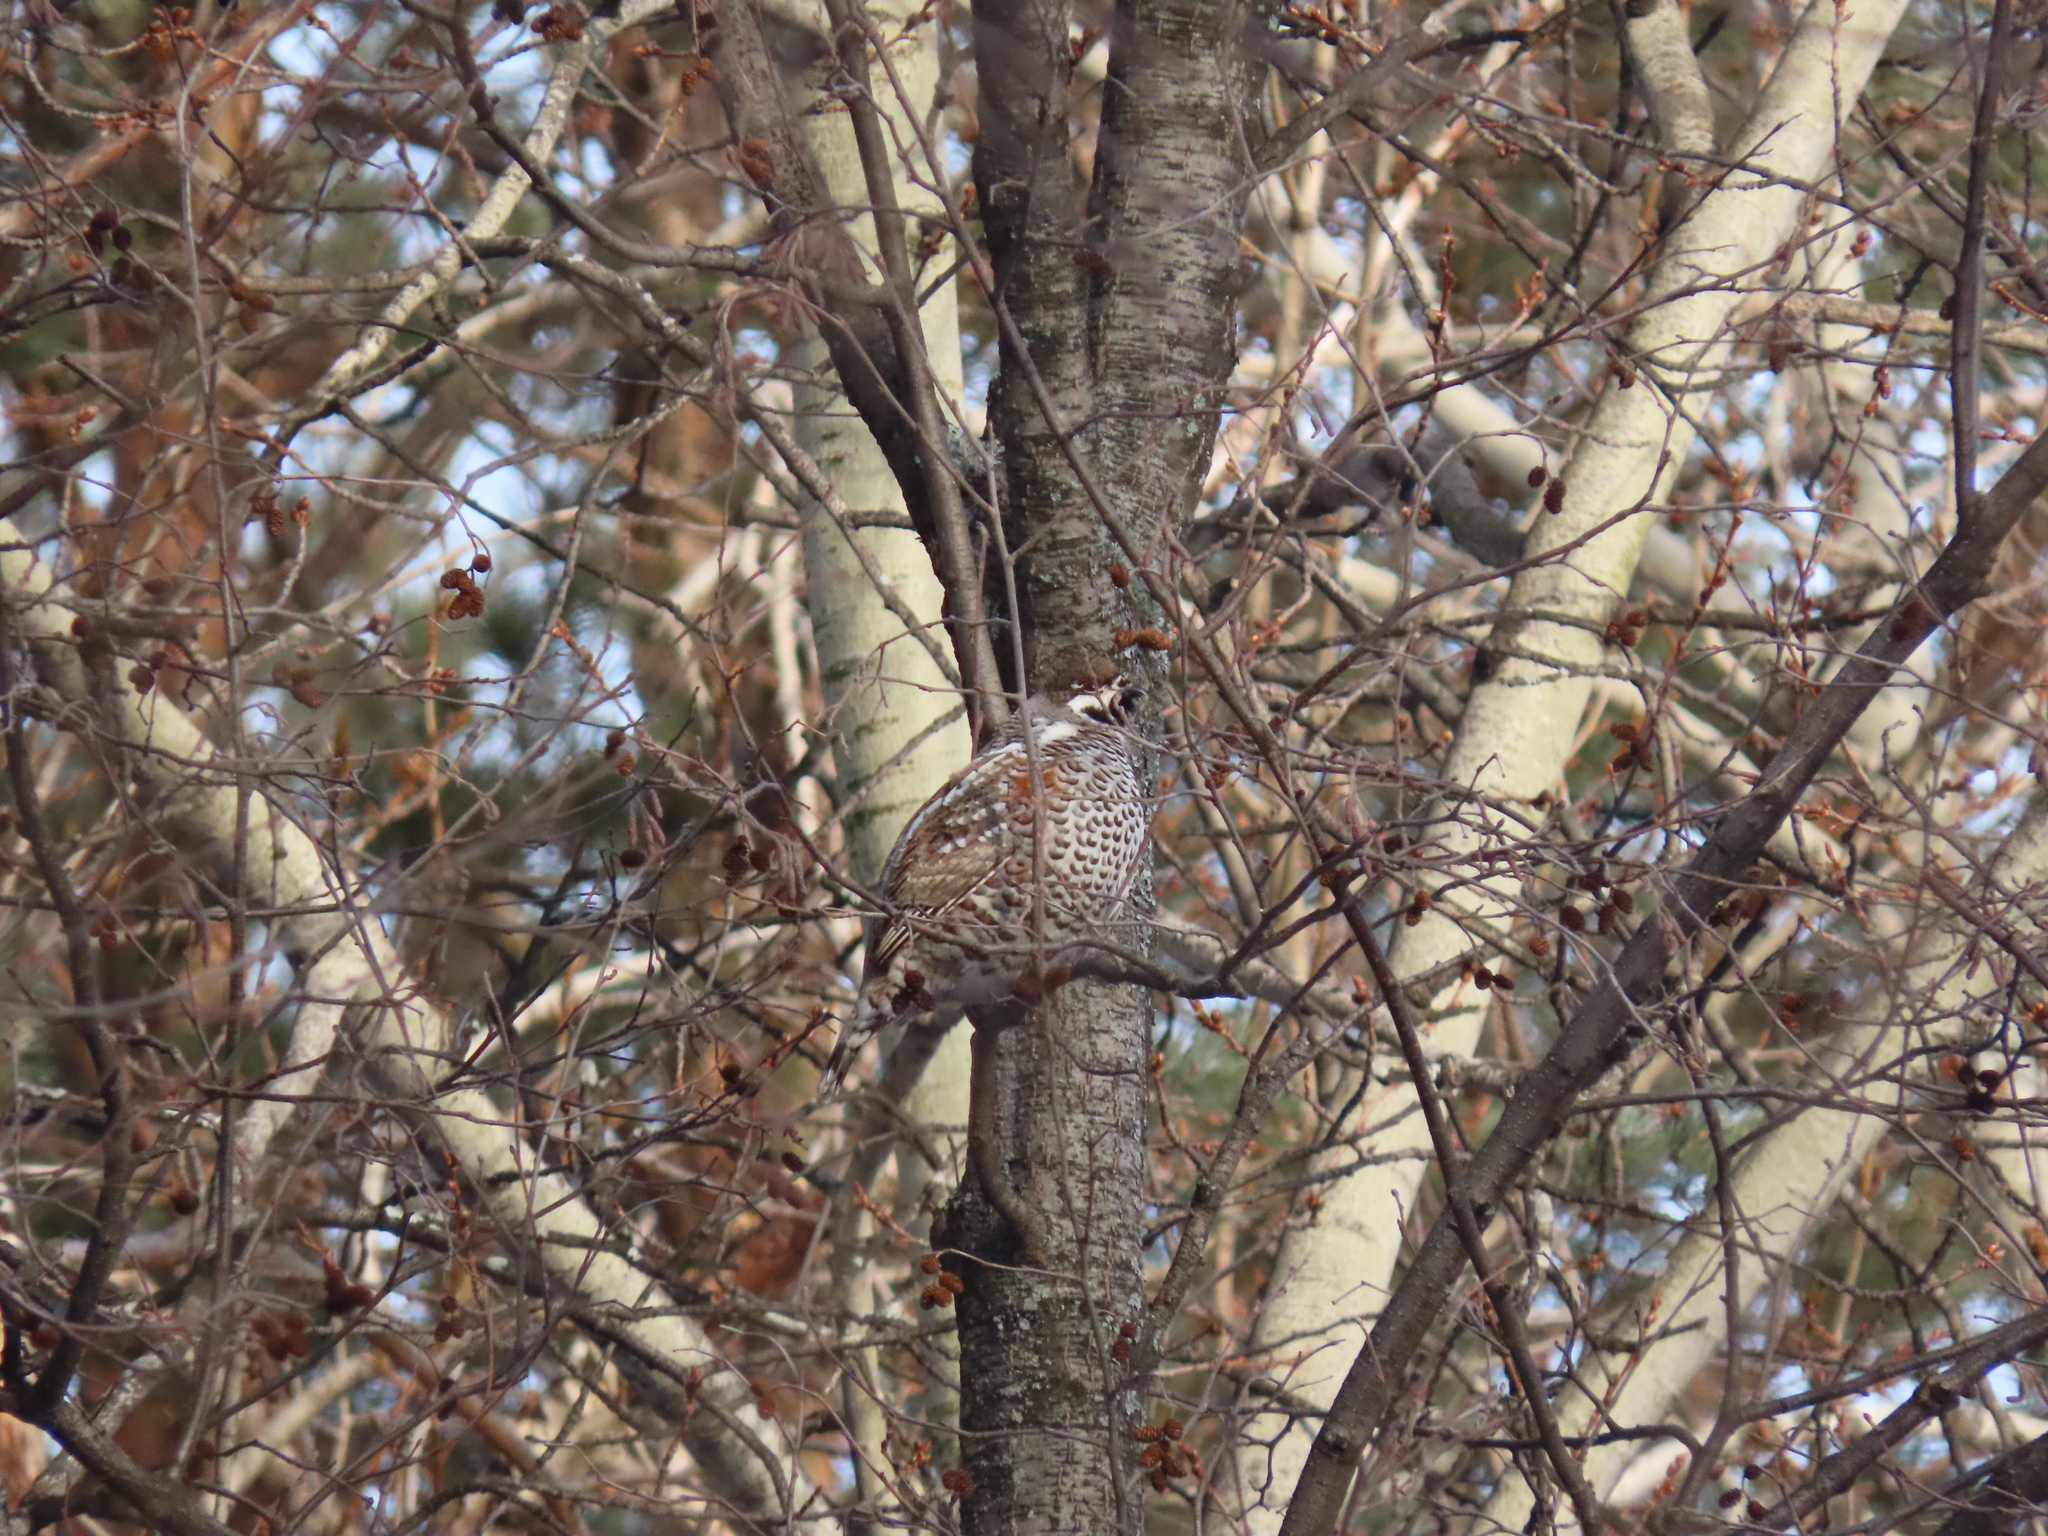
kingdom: Animalia
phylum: Chordata
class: Aves
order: Galliformes
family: Phasianidae
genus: Tetrastes
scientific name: Tetrastes bonasia
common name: Hazel grouse
